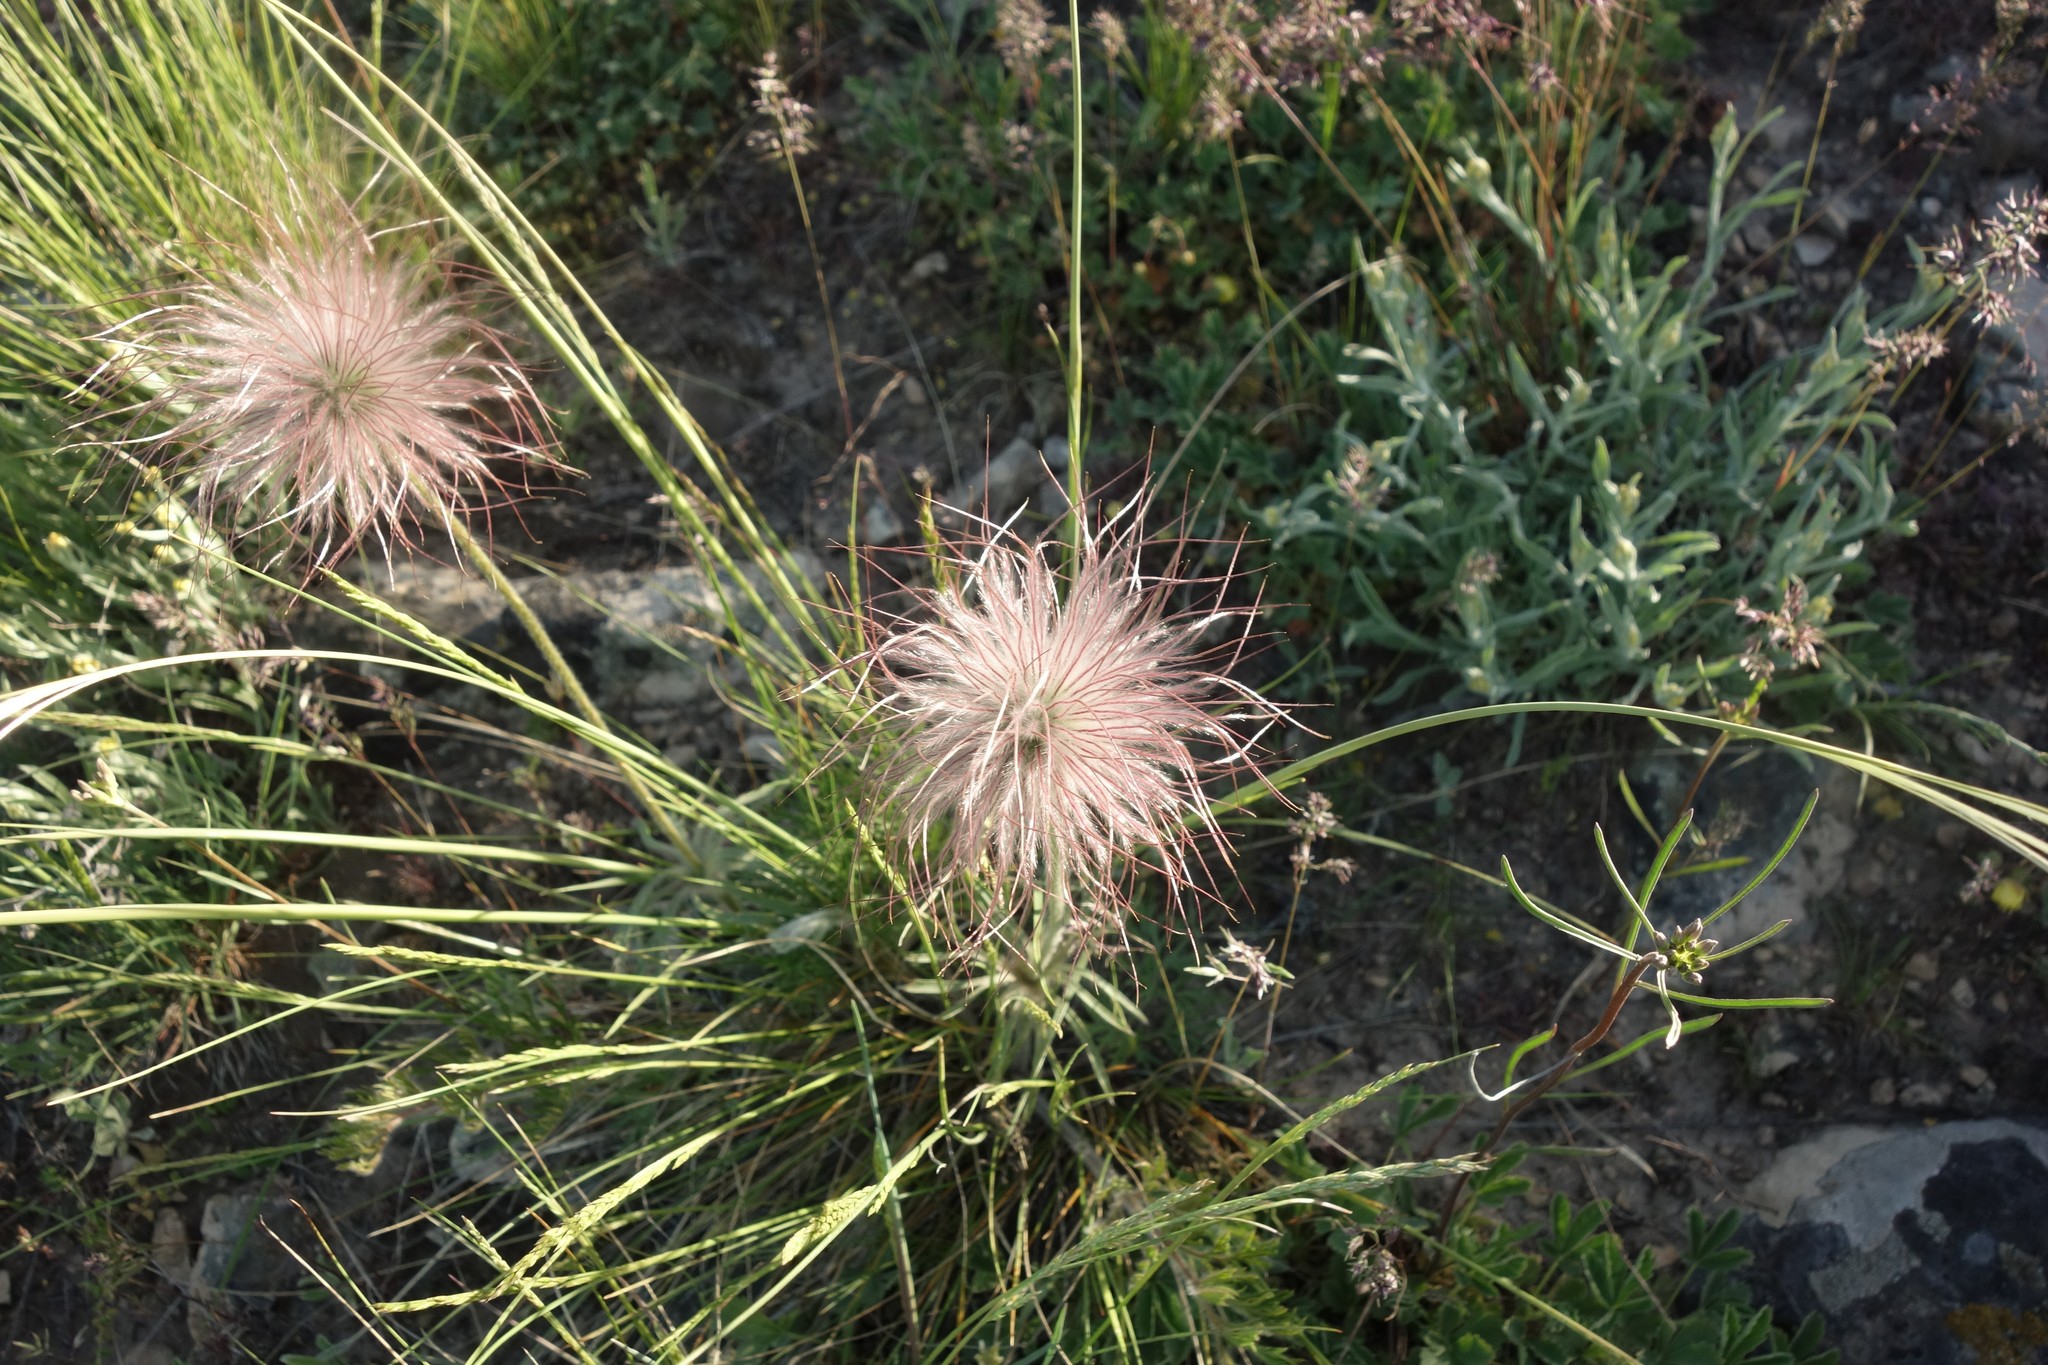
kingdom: Plantae
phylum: Tracheophyta
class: Magnoliopsida
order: Ranunculales
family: Ranunculaceae
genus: Pulsatilla
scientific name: Pulsatilla pratensis
